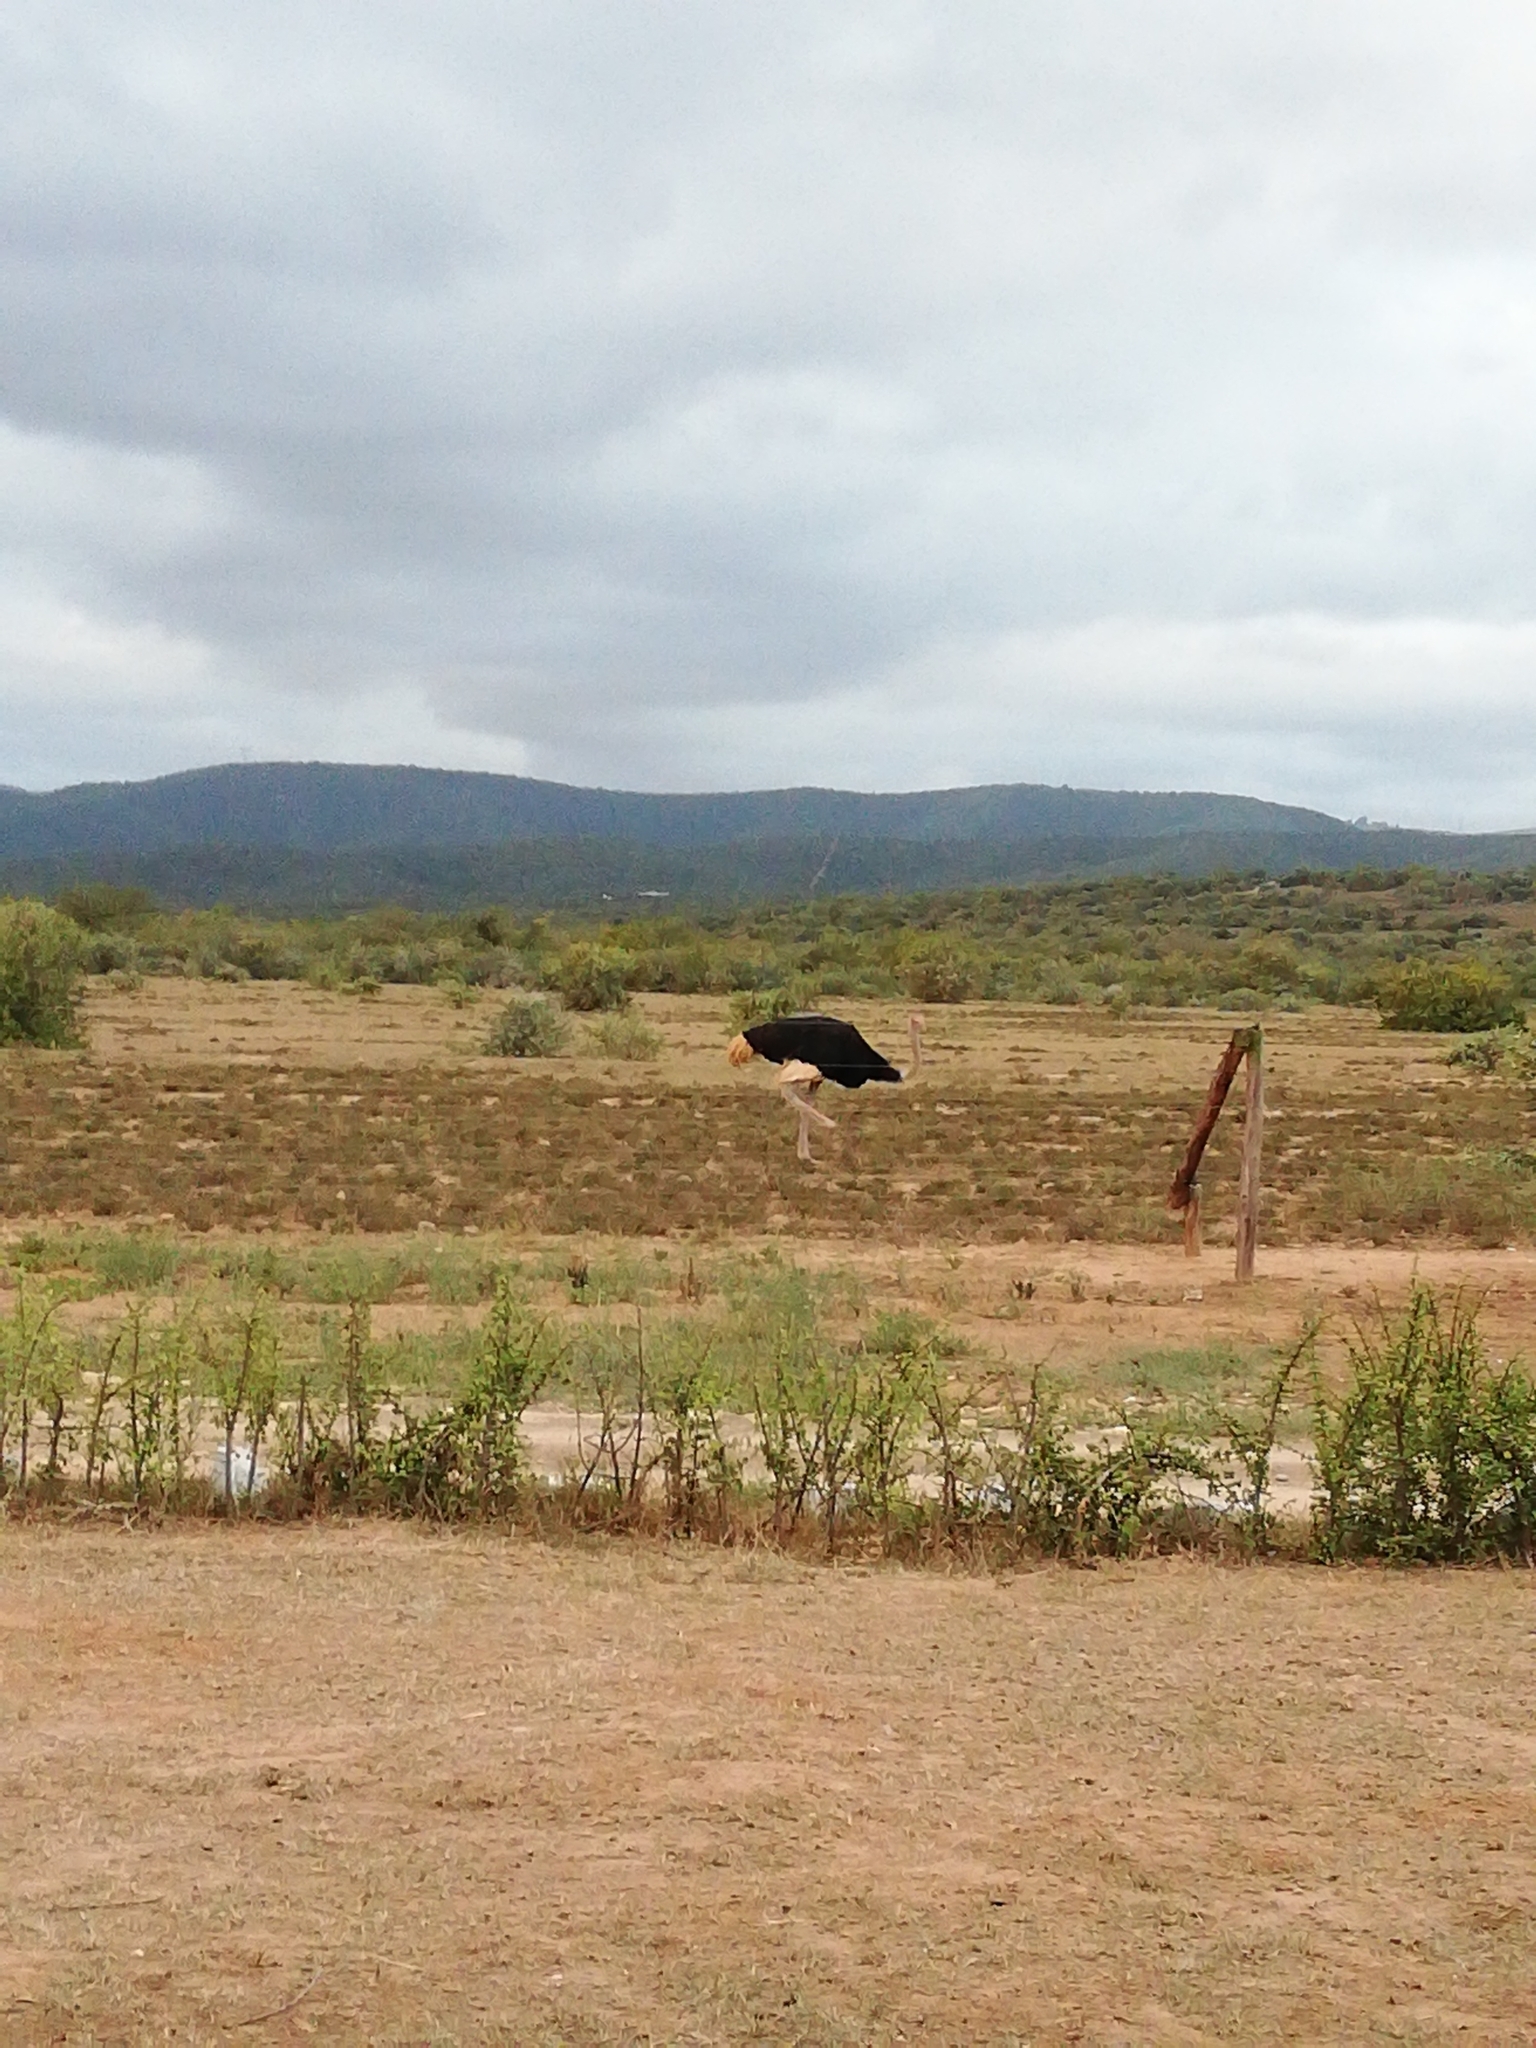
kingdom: Animalia
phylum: Chordata
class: Aves
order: Struthioniformes
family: Struthionidae
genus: Struthio
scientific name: Struthio camelus
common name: Common ostrich
